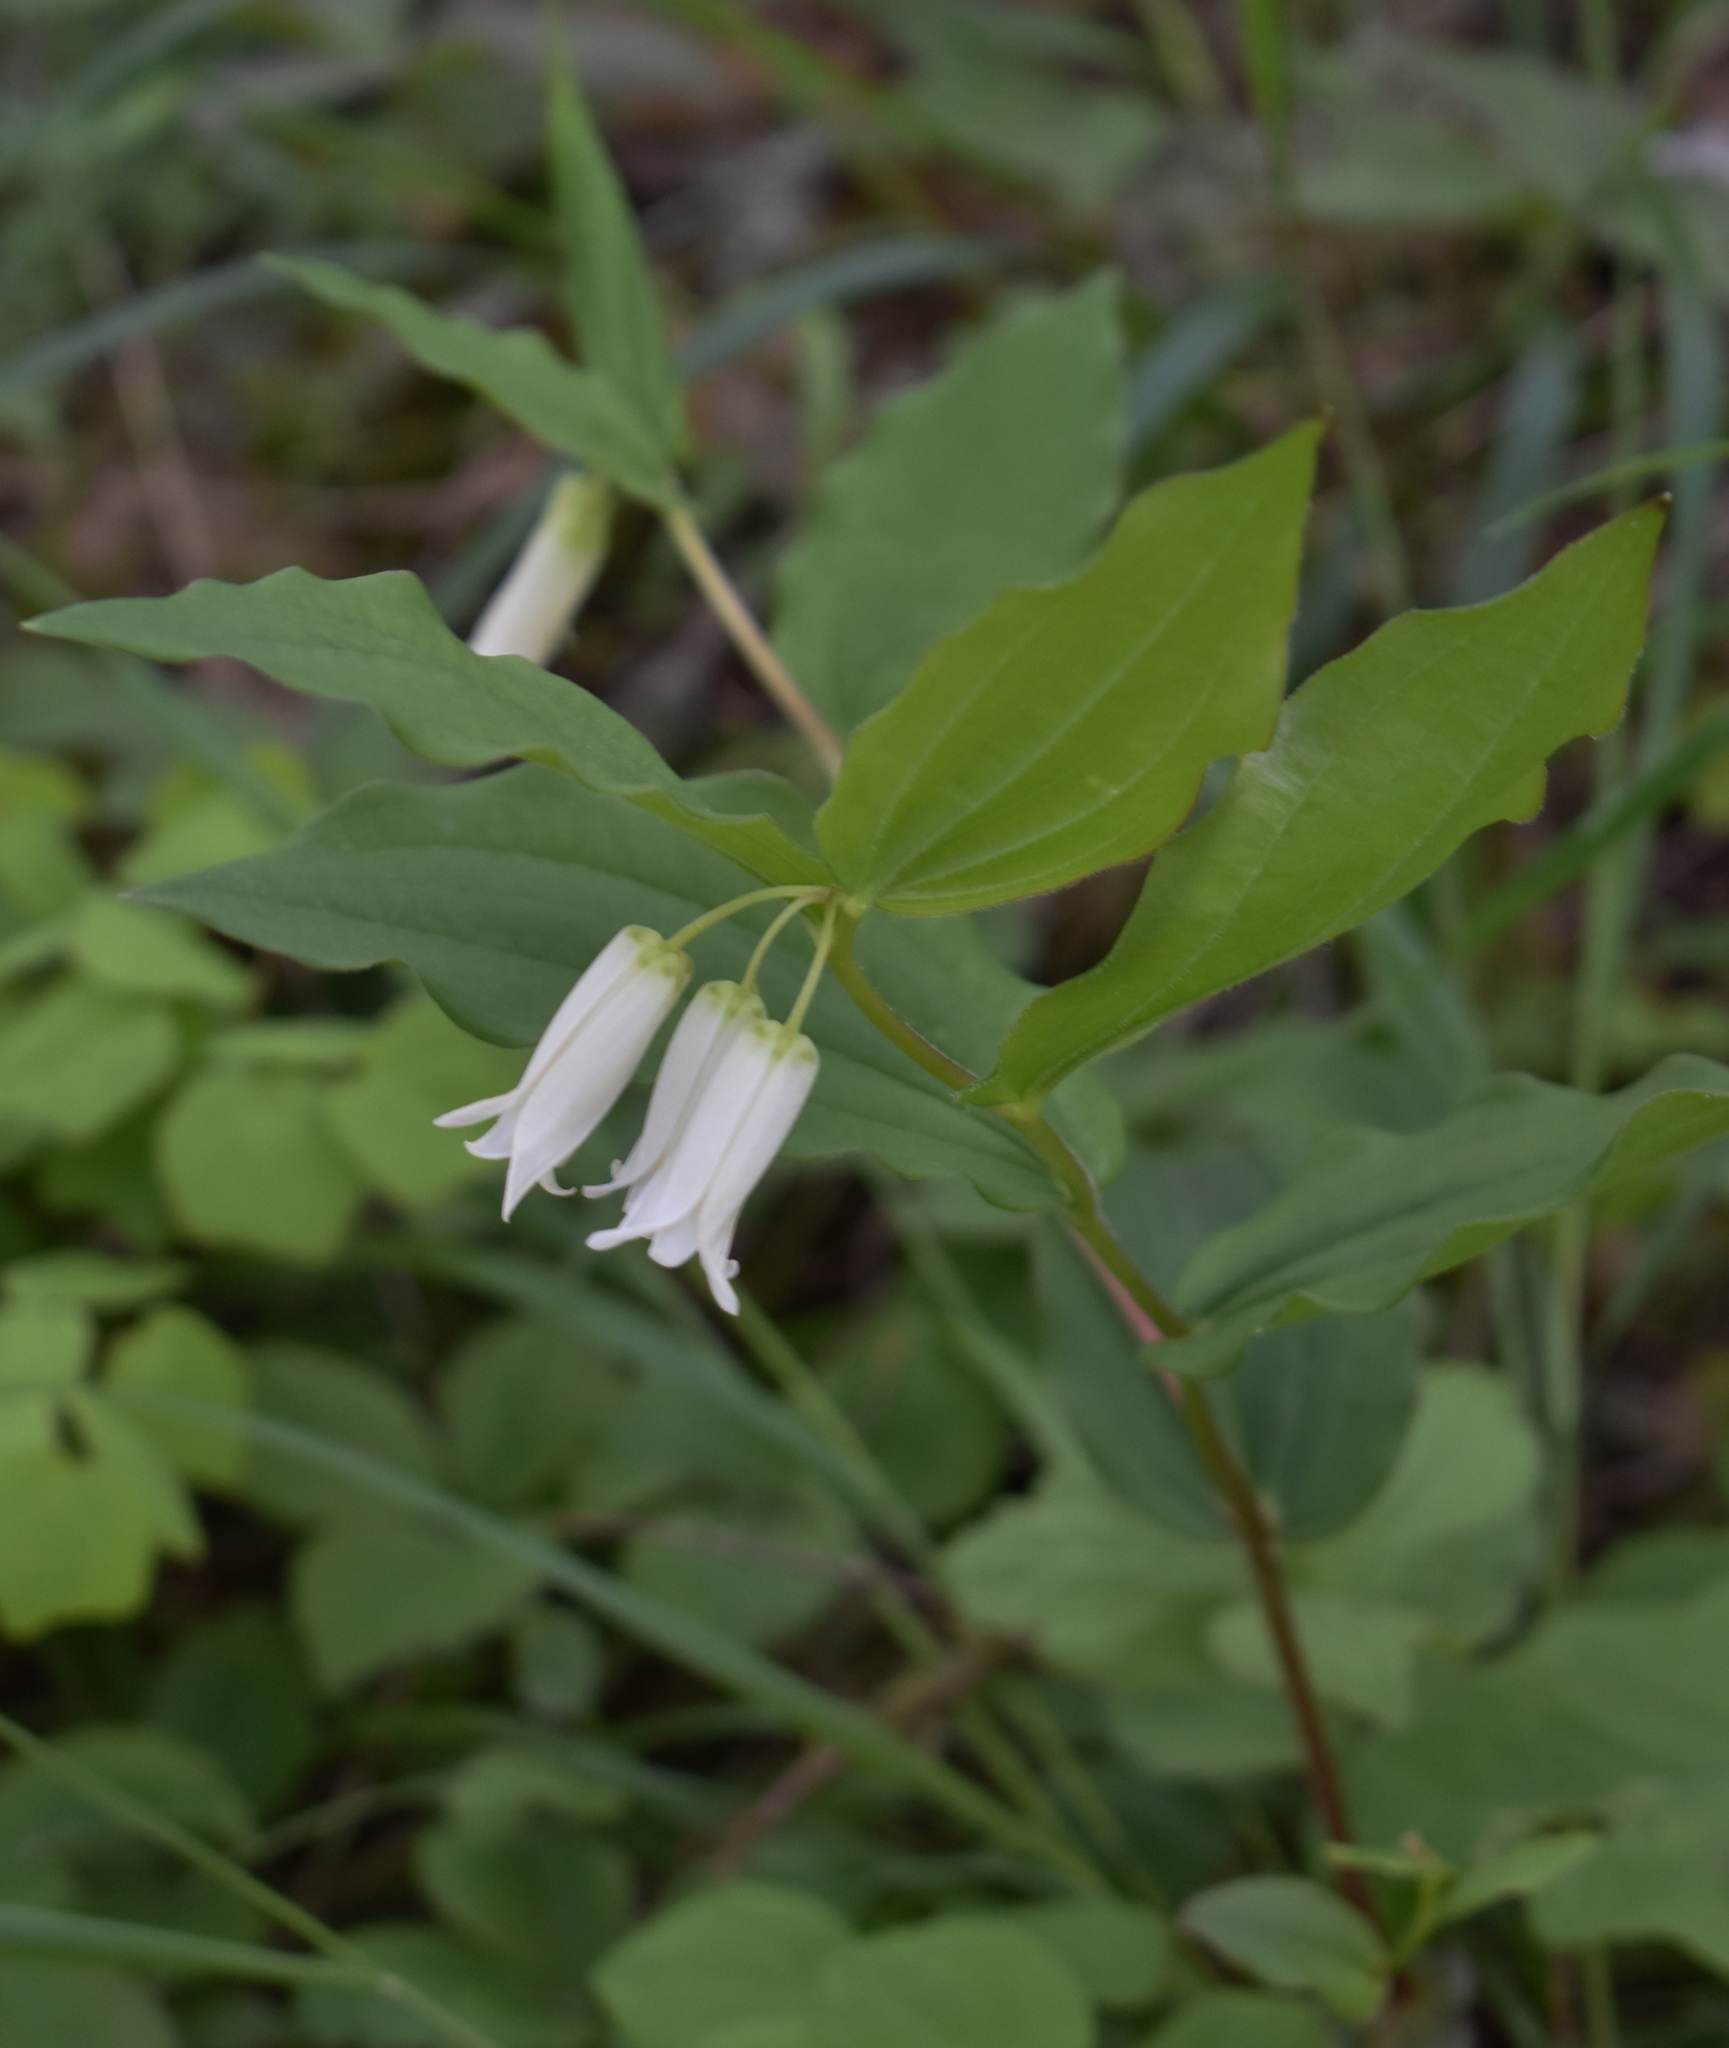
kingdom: Plantae
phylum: Tracheophyta
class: Liliopsida
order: Liliales
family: Liliaceae
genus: Prosartes
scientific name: Prosartes smithii
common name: Fairy-lantern
